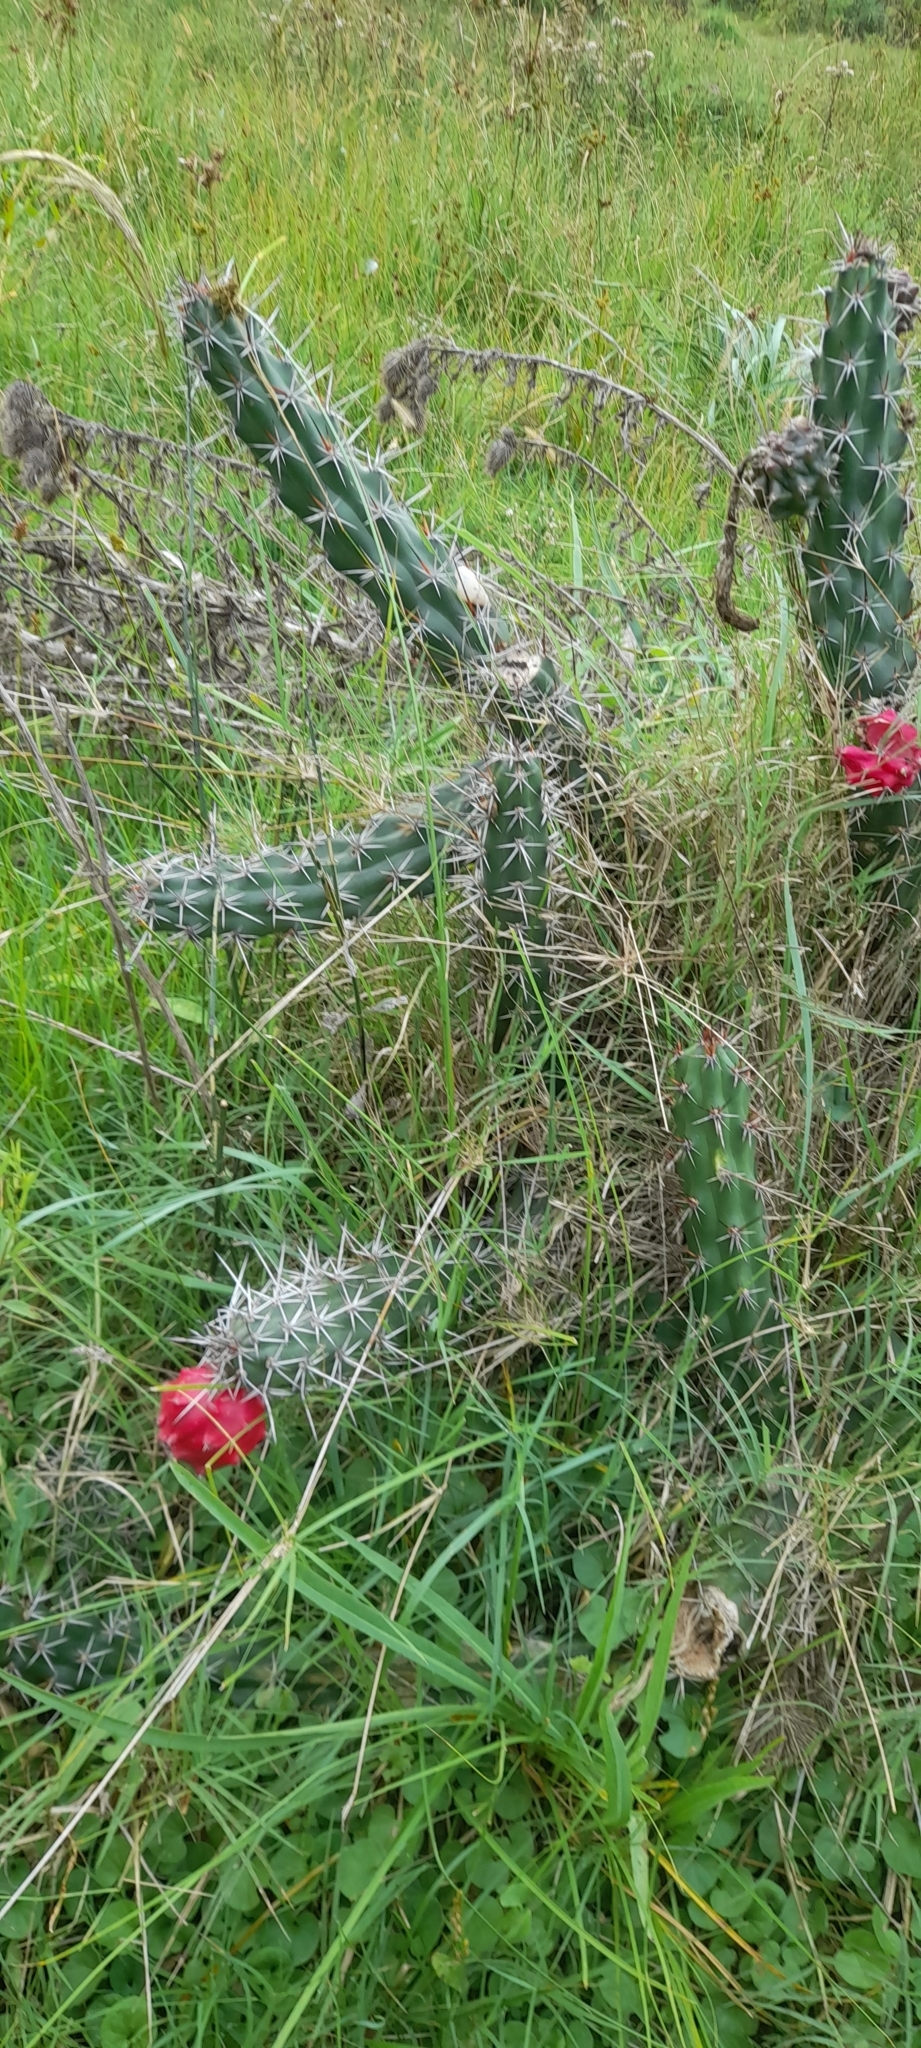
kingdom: Plantae
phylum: Tracheophyta
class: Magnoliopsida
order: Caryophyllales
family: Cactaceae
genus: Harrisia
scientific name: Harrisia pomanensis
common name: Midnight-lady
